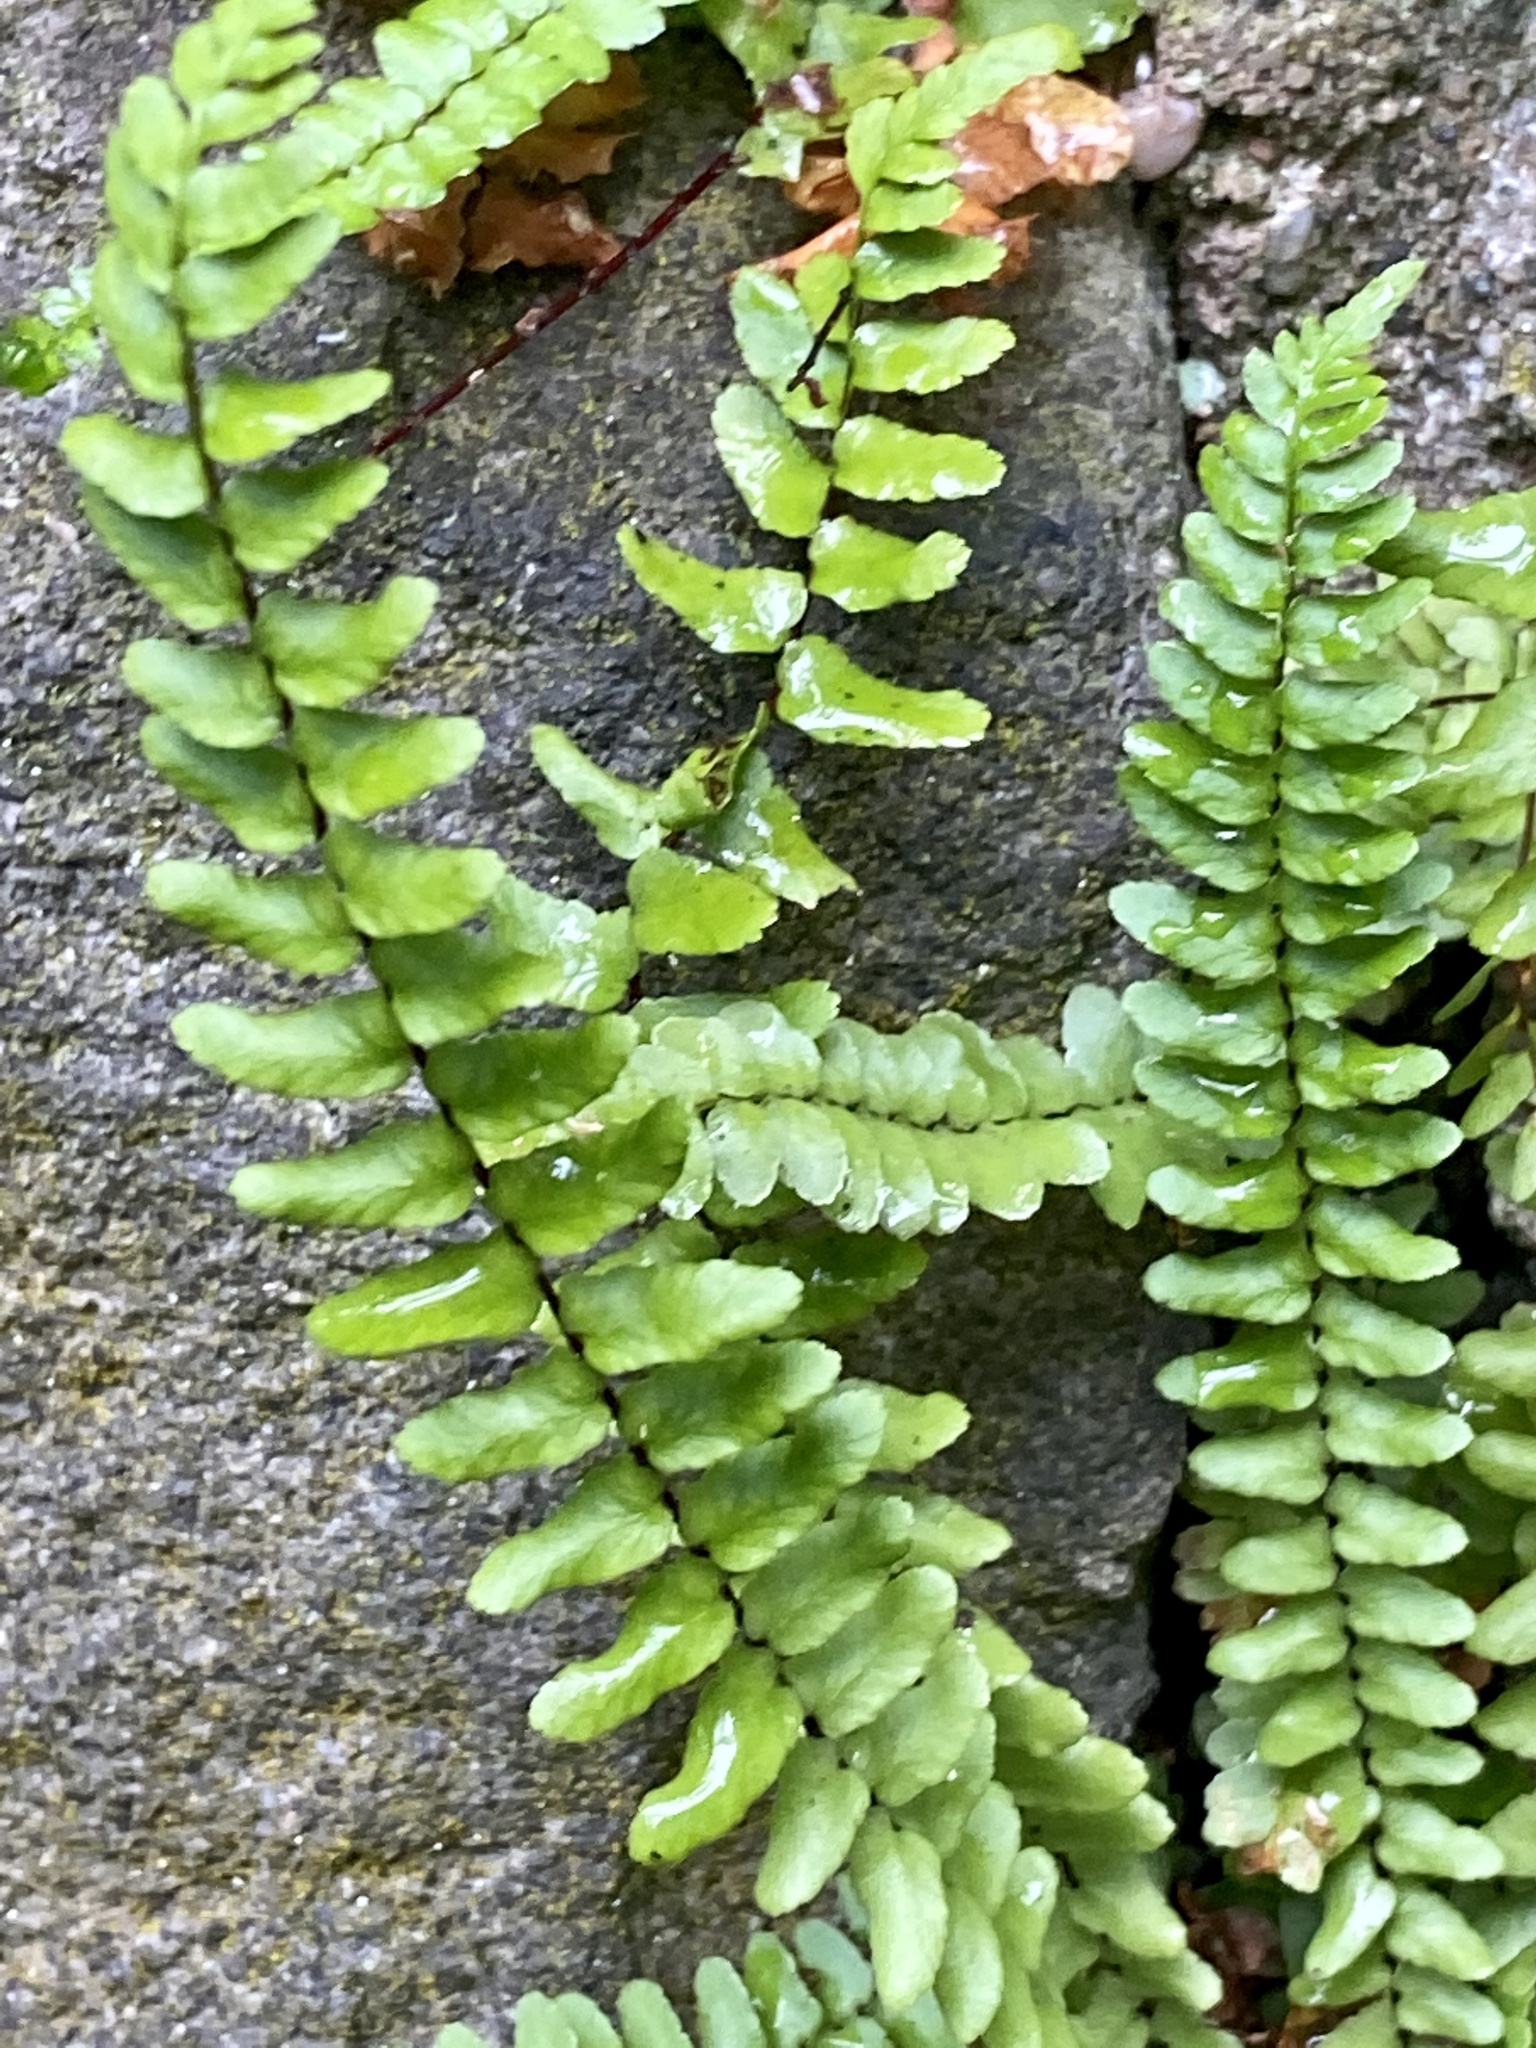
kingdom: Plantae
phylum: Tracheophyta
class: Polypodiopsida
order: Polypodiales
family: Aspleniaceae
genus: Asplenium
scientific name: Asplenium platyneuron
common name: Ebony spleenwort
